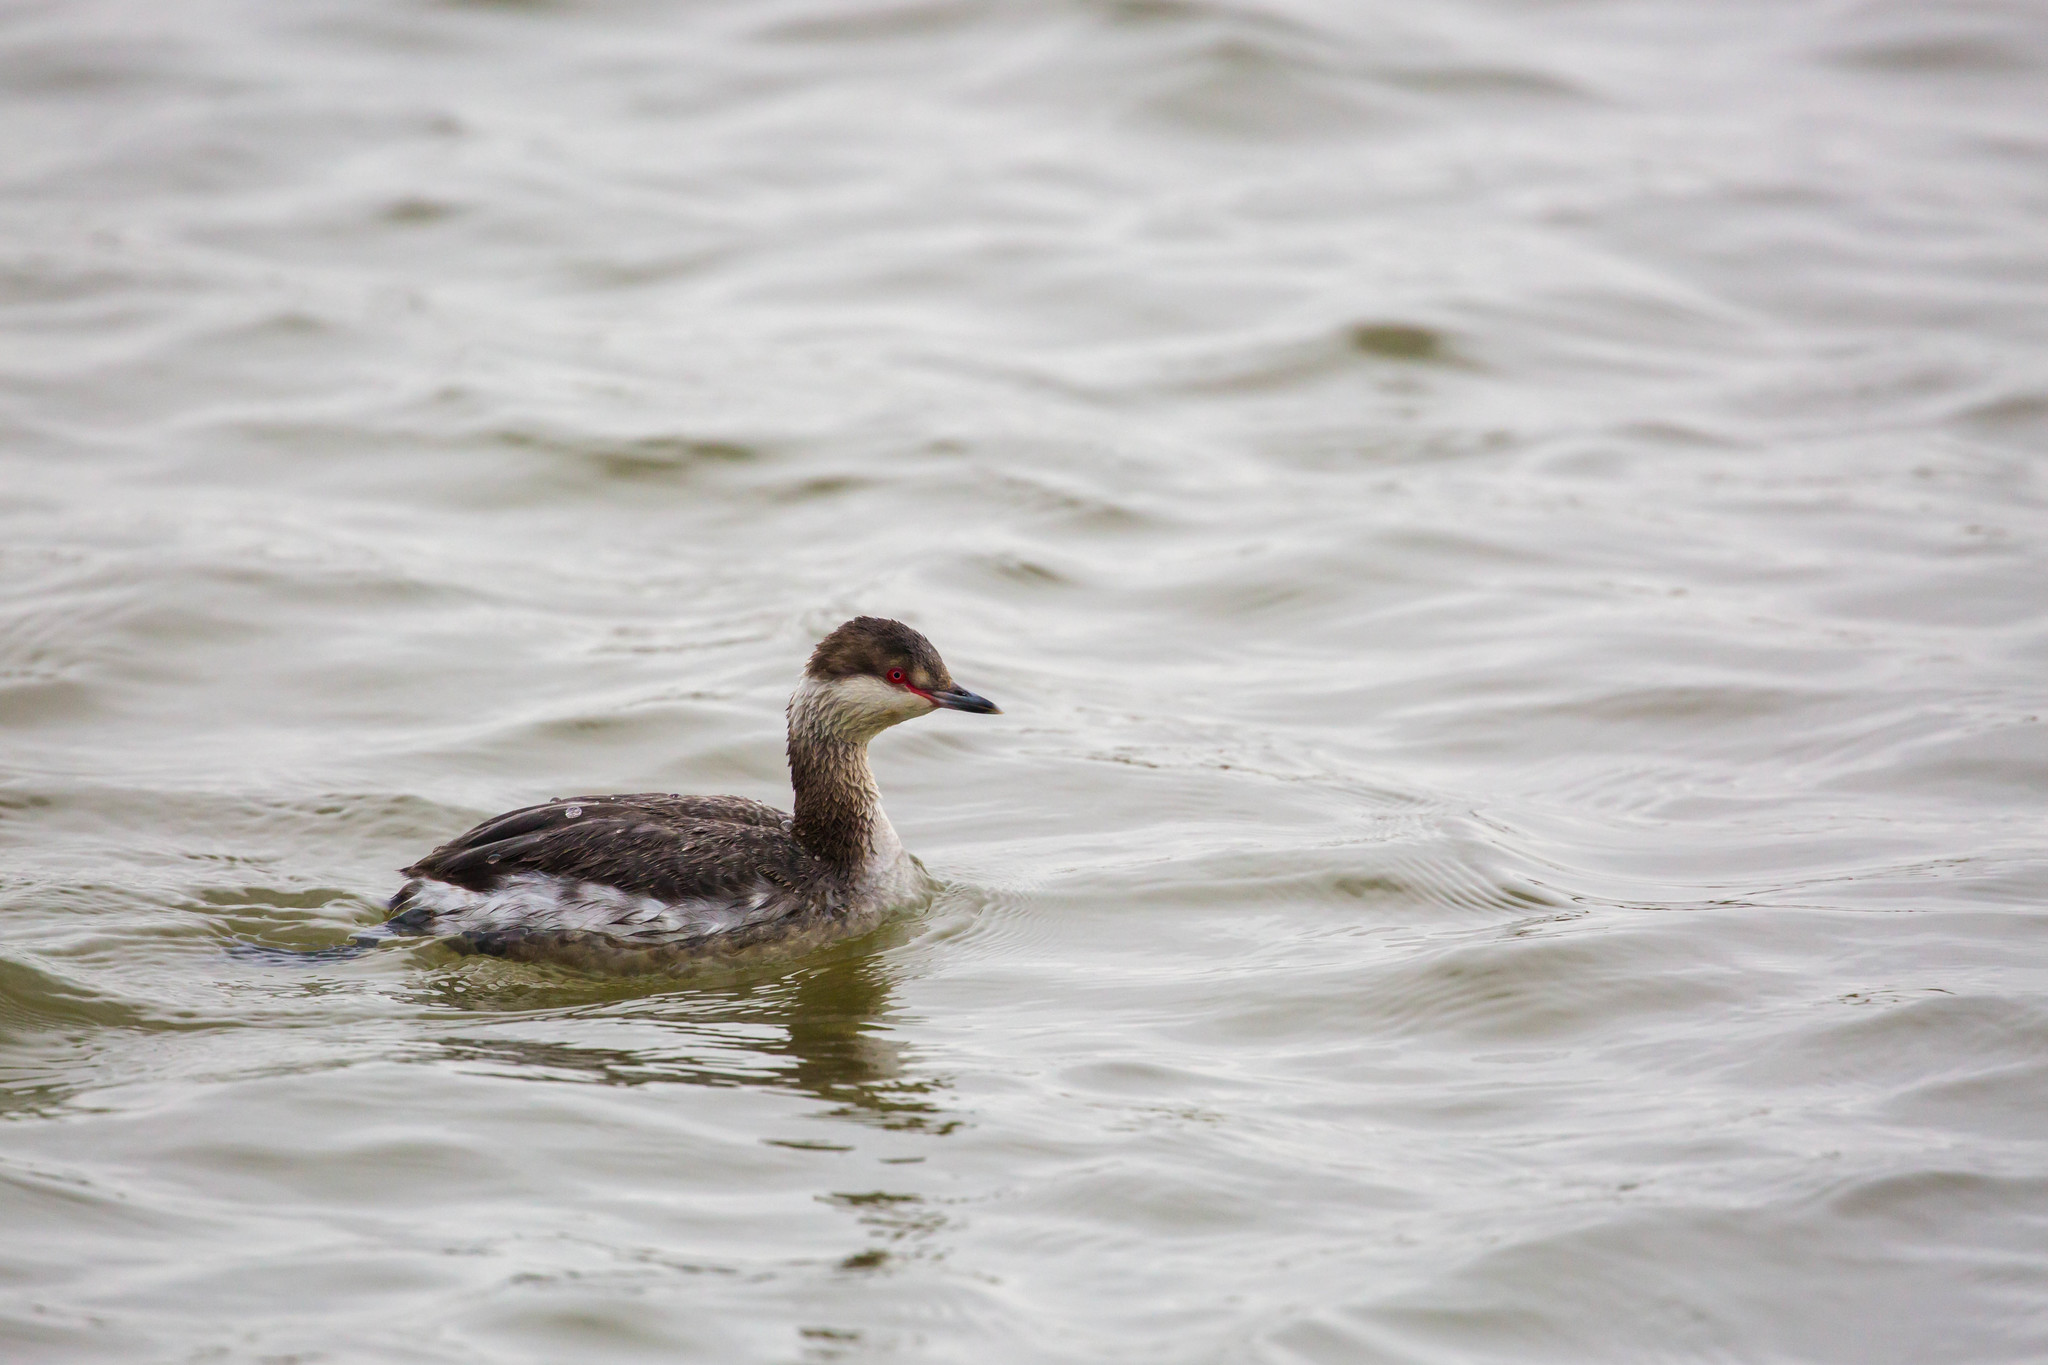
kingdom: Animalia
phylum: Chordata
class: Aves
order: Podicipediformes
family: Podicipedidae
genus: Podiceps
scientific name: Podiceps auritus
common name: Horned grebe
